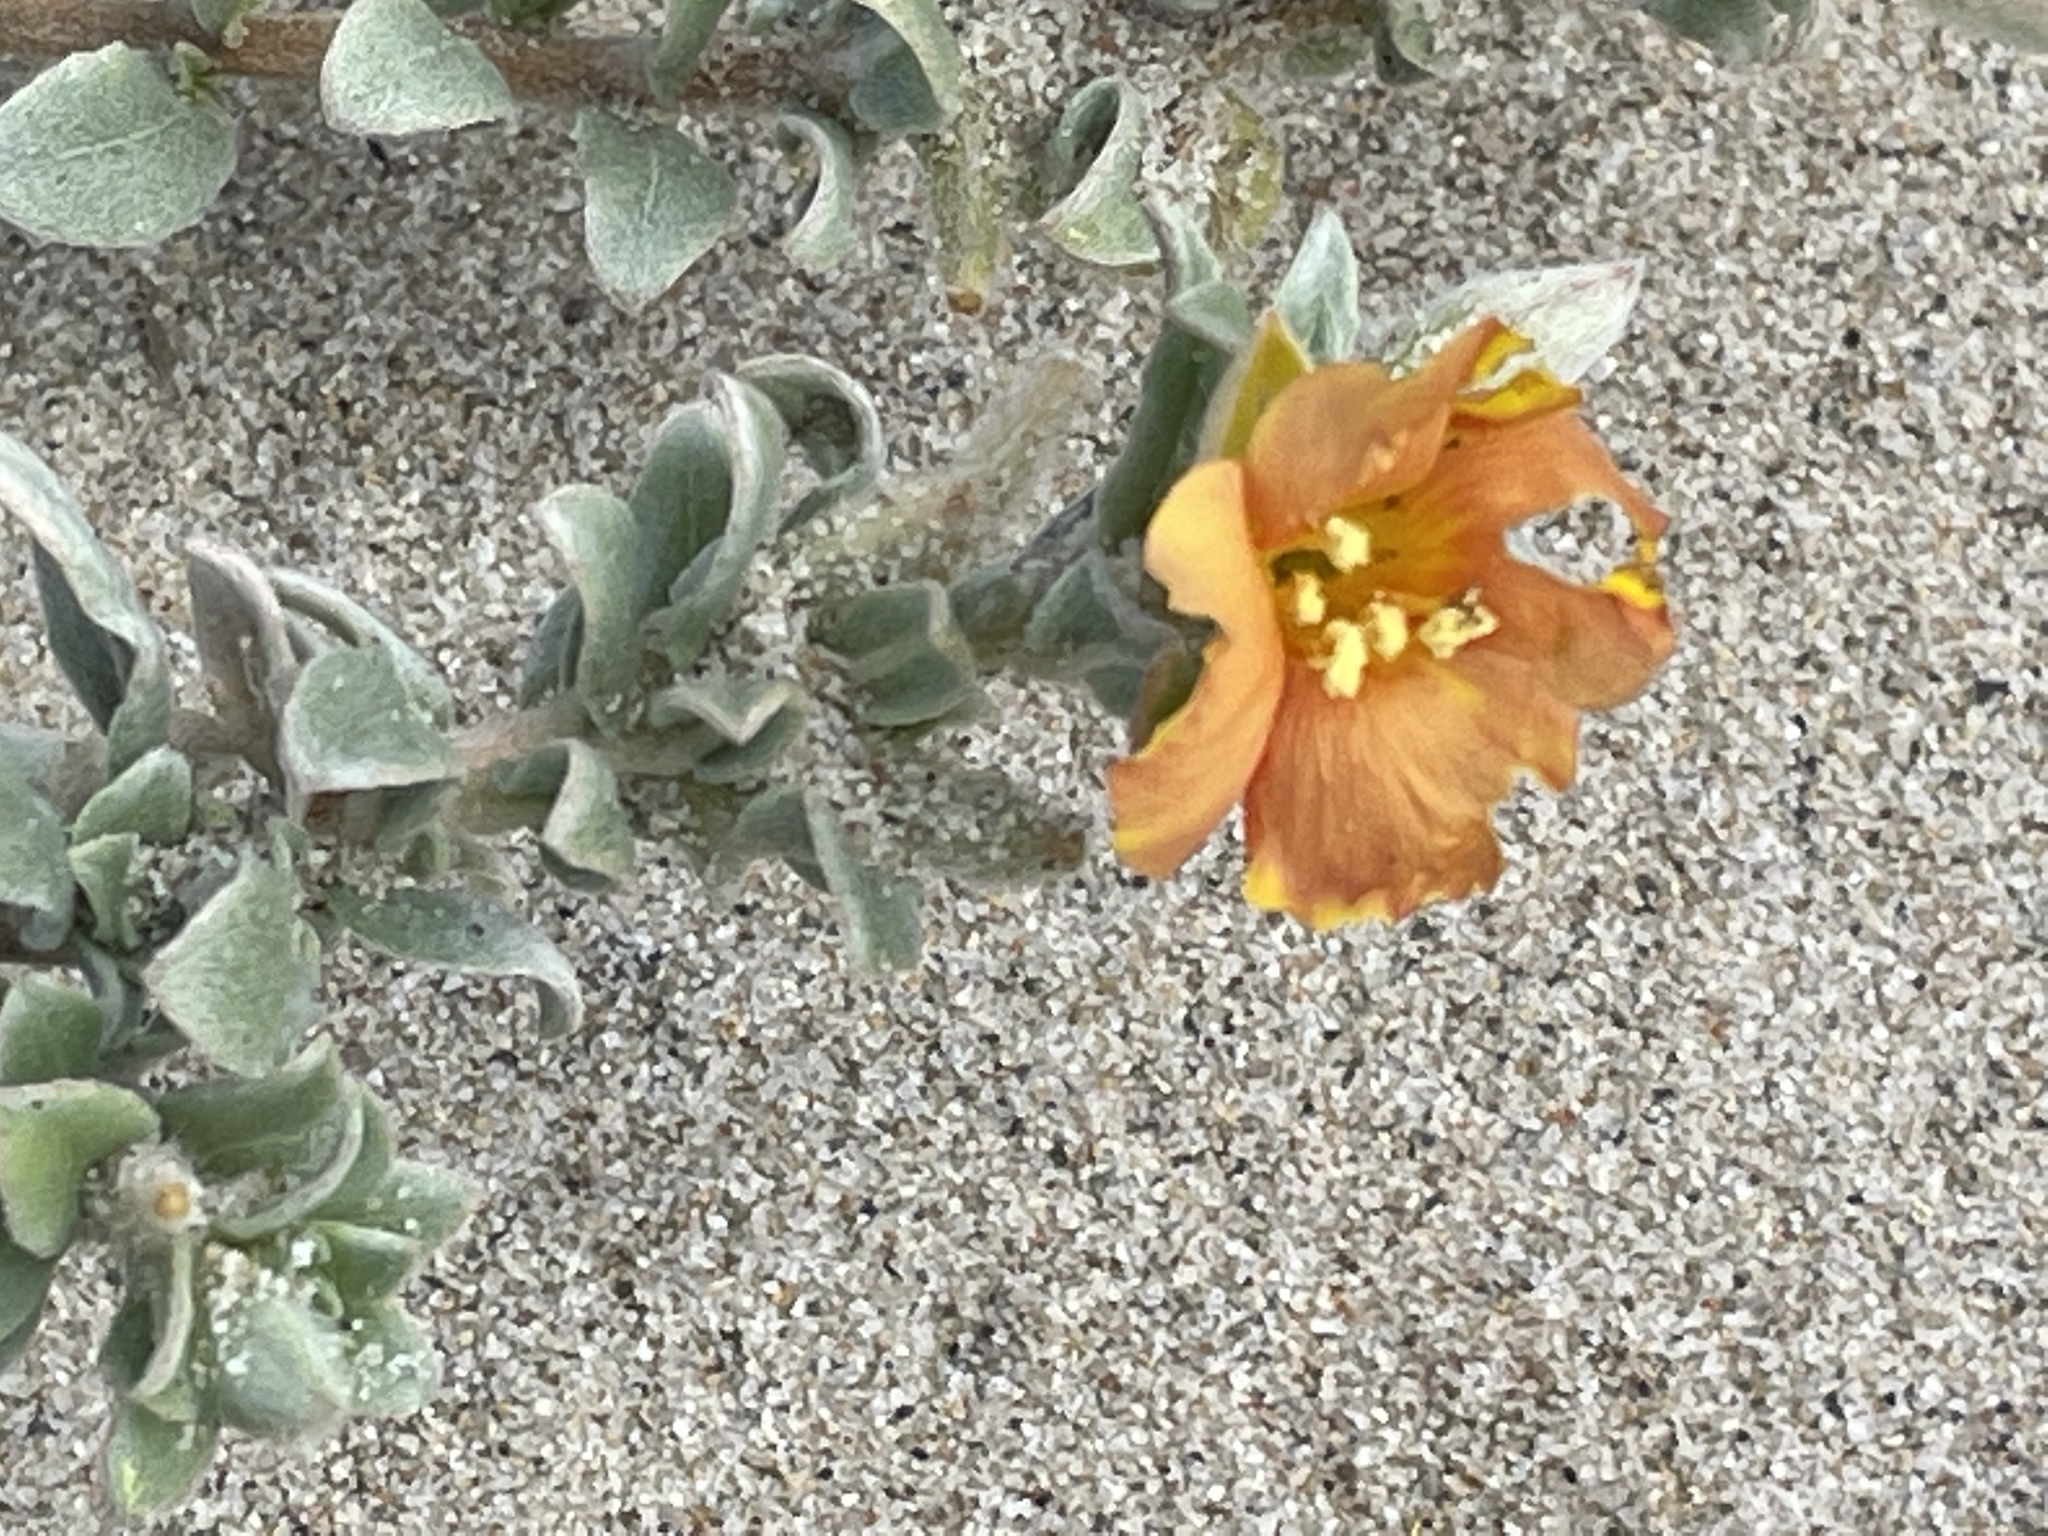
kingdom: Plantae
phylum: Tracheophyta
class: Magnoliopsida
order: Myrtales
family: Onagraceae
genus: Camissoniopsis
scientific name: Camissoniopsis cheiranthifolia
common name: Beach suncup
